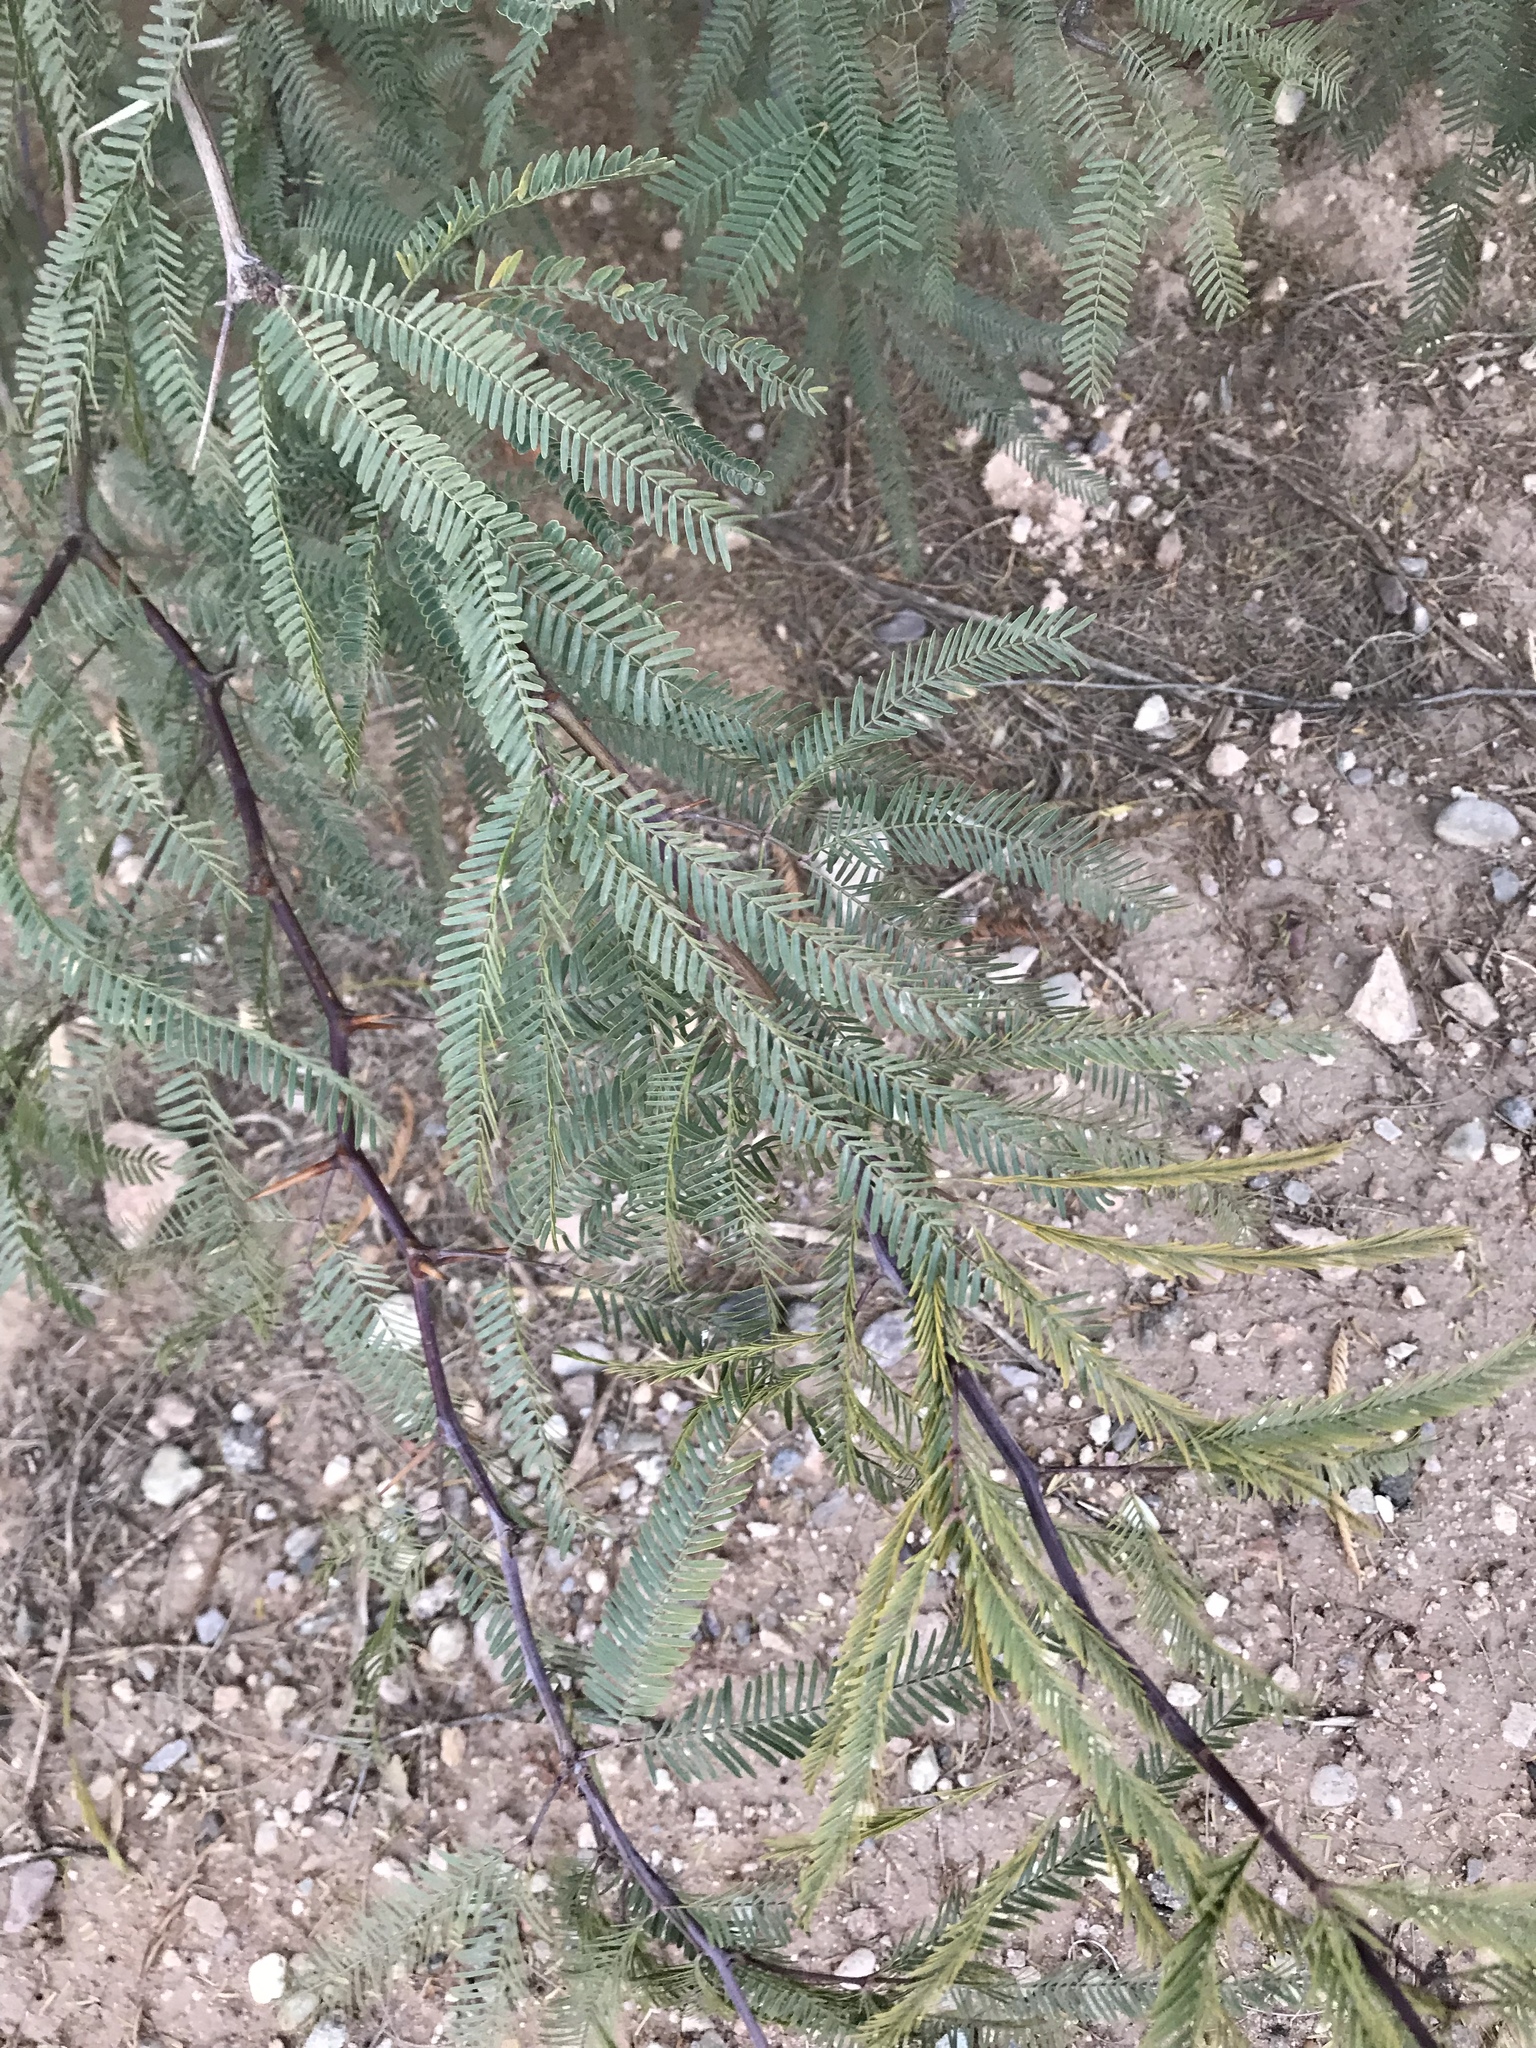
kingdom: Plantae
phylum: Tracheophyta
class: Magnoliopsida
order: Fabales
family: Fabaceae
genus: Prosopis
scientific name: Prosopis glandulosa
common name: Honey mesquite
